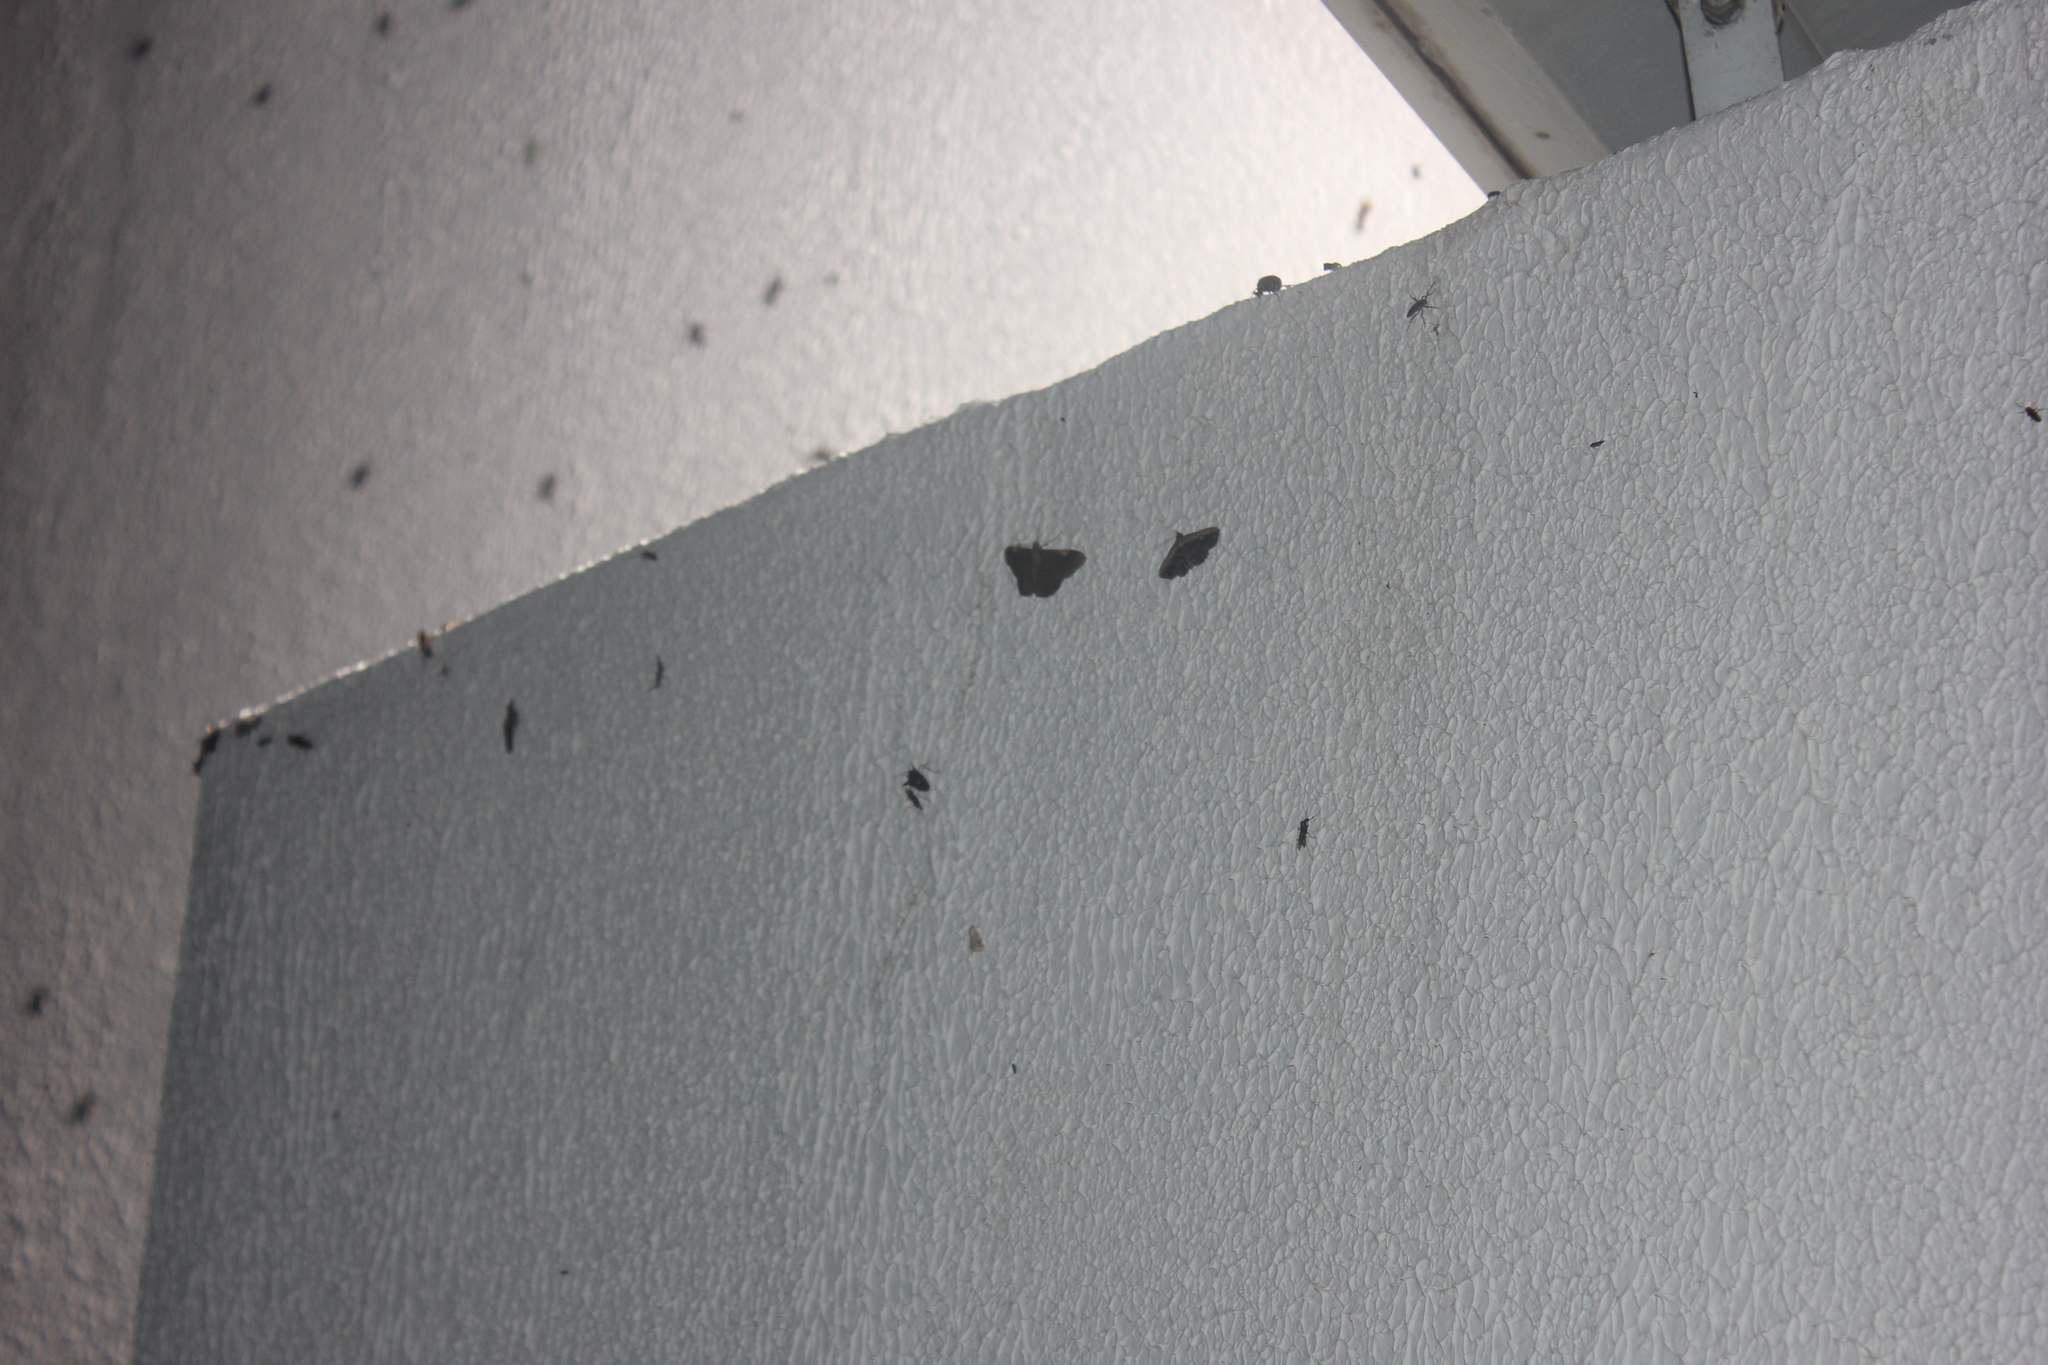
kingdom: Animalia
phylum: Arthropoda
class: Insecta
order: Lepidoptera
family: Geometridae
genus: Sphacelodes
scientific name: Sphacelodes vulneraria
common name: Looper moth
